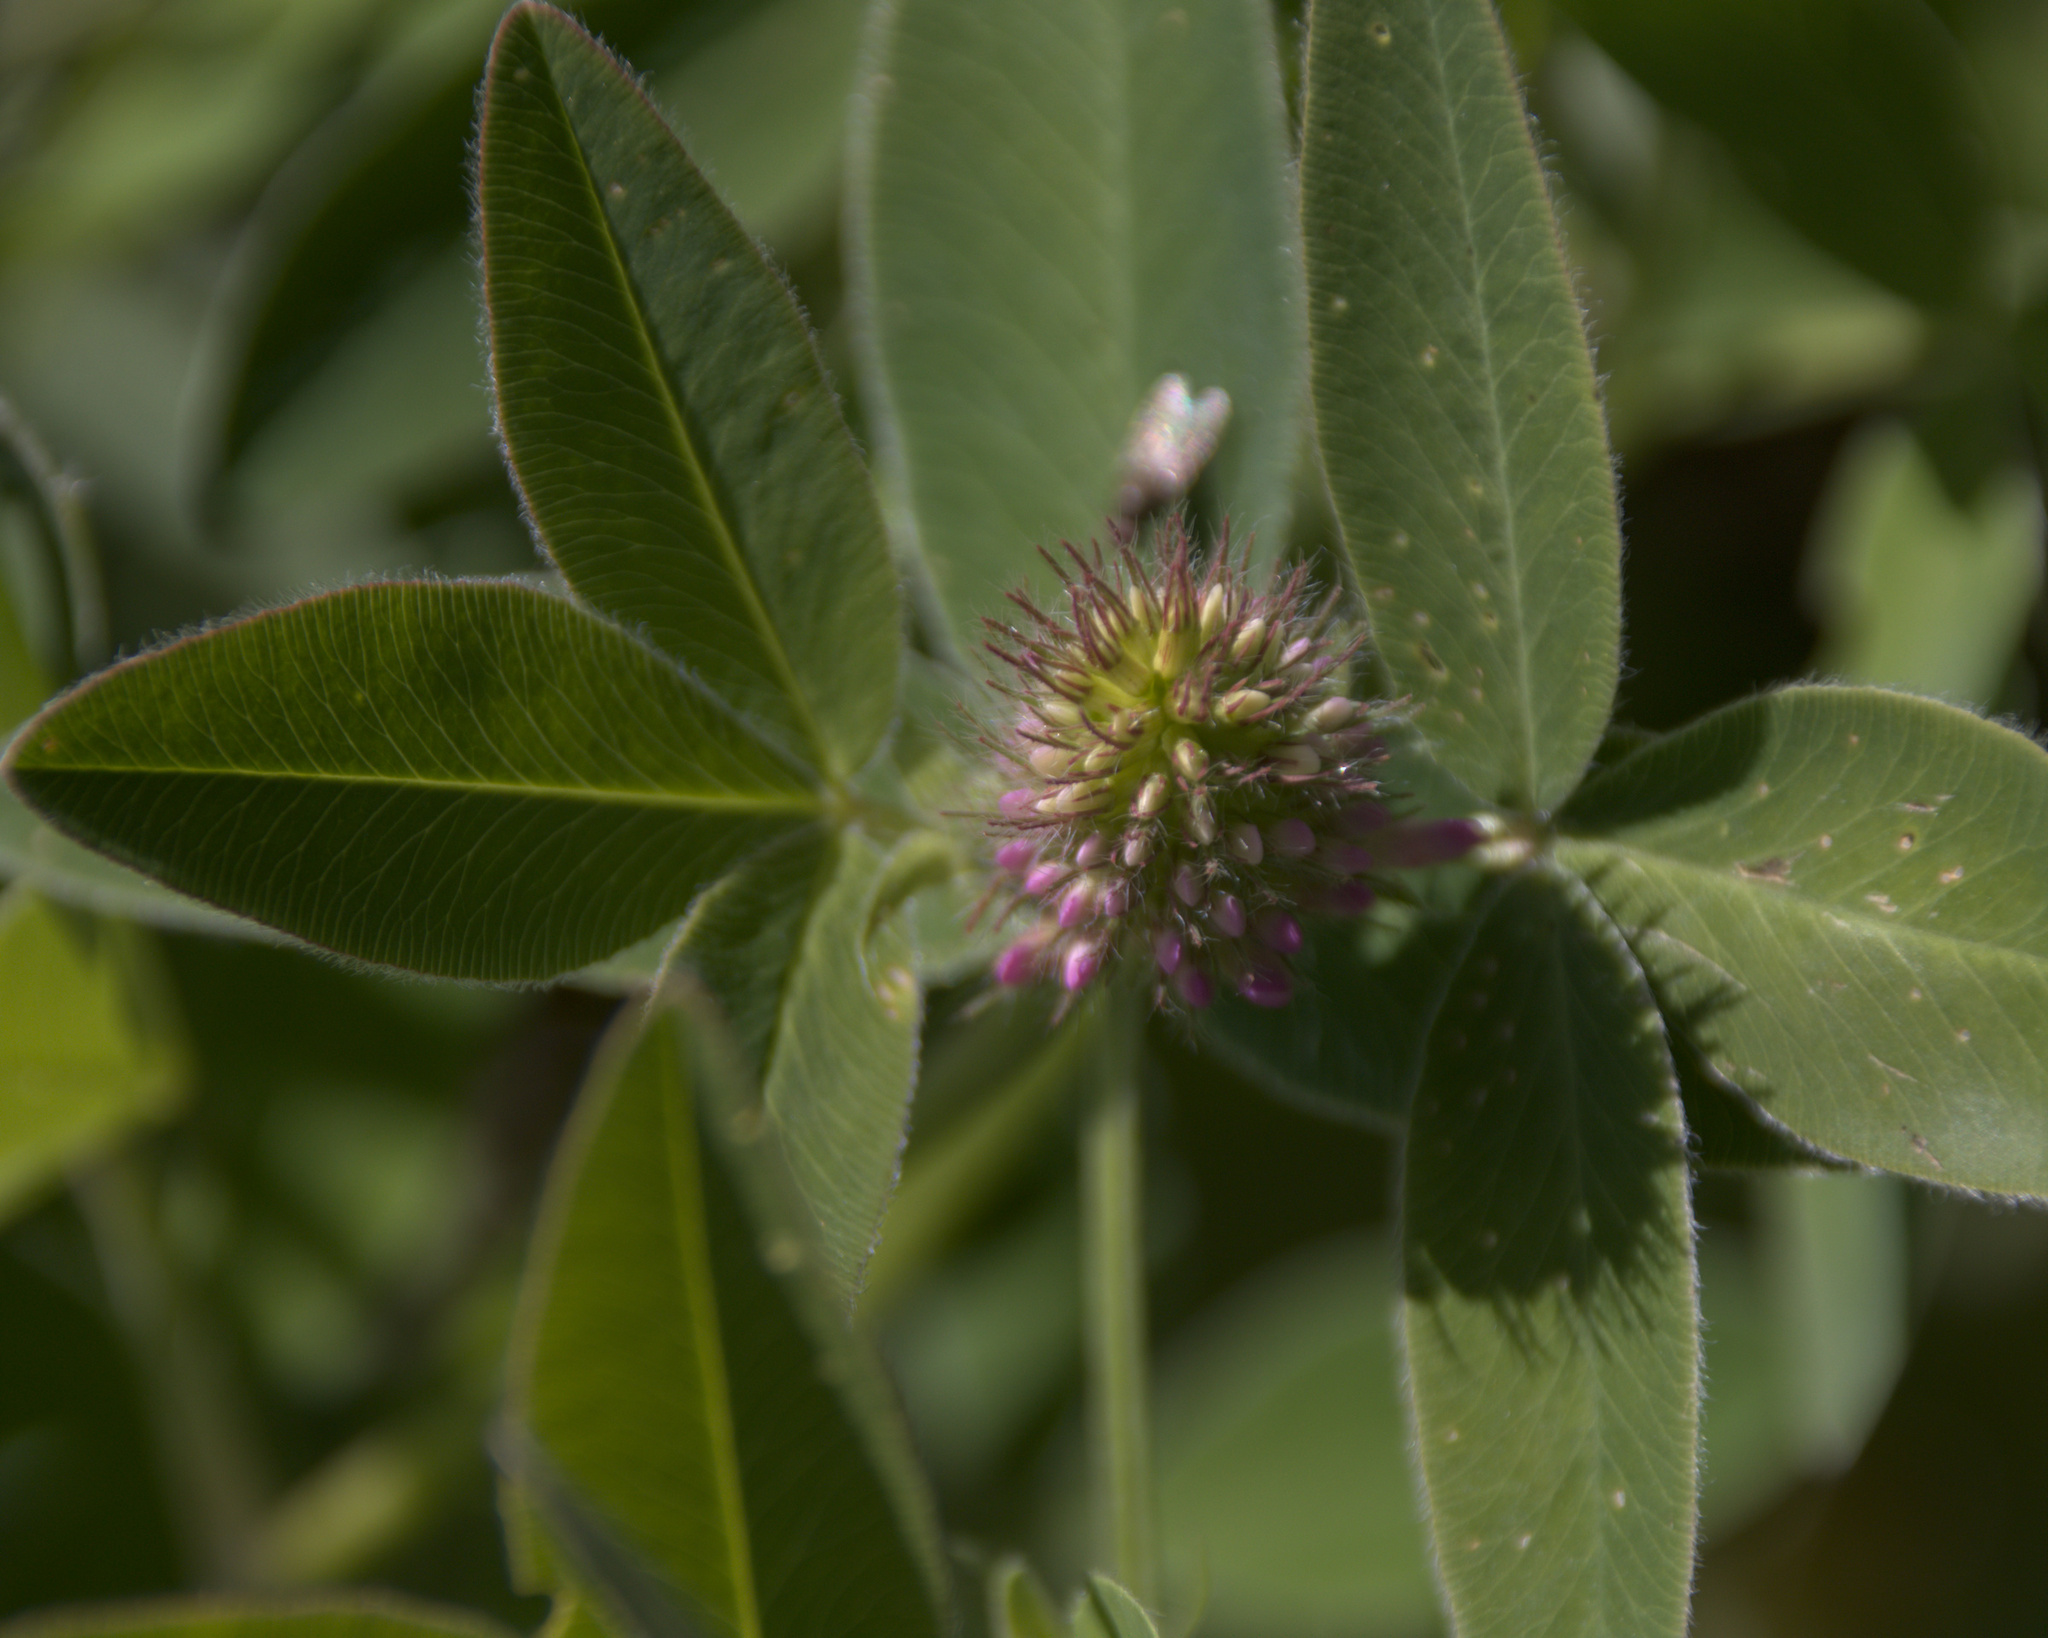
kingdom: Plantae
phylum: Tracheophyta
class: Magnoliopsida
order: Fabales
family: Fabaceae
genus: Trifolium
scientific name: Trifolium medium
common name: Zigzag clover
